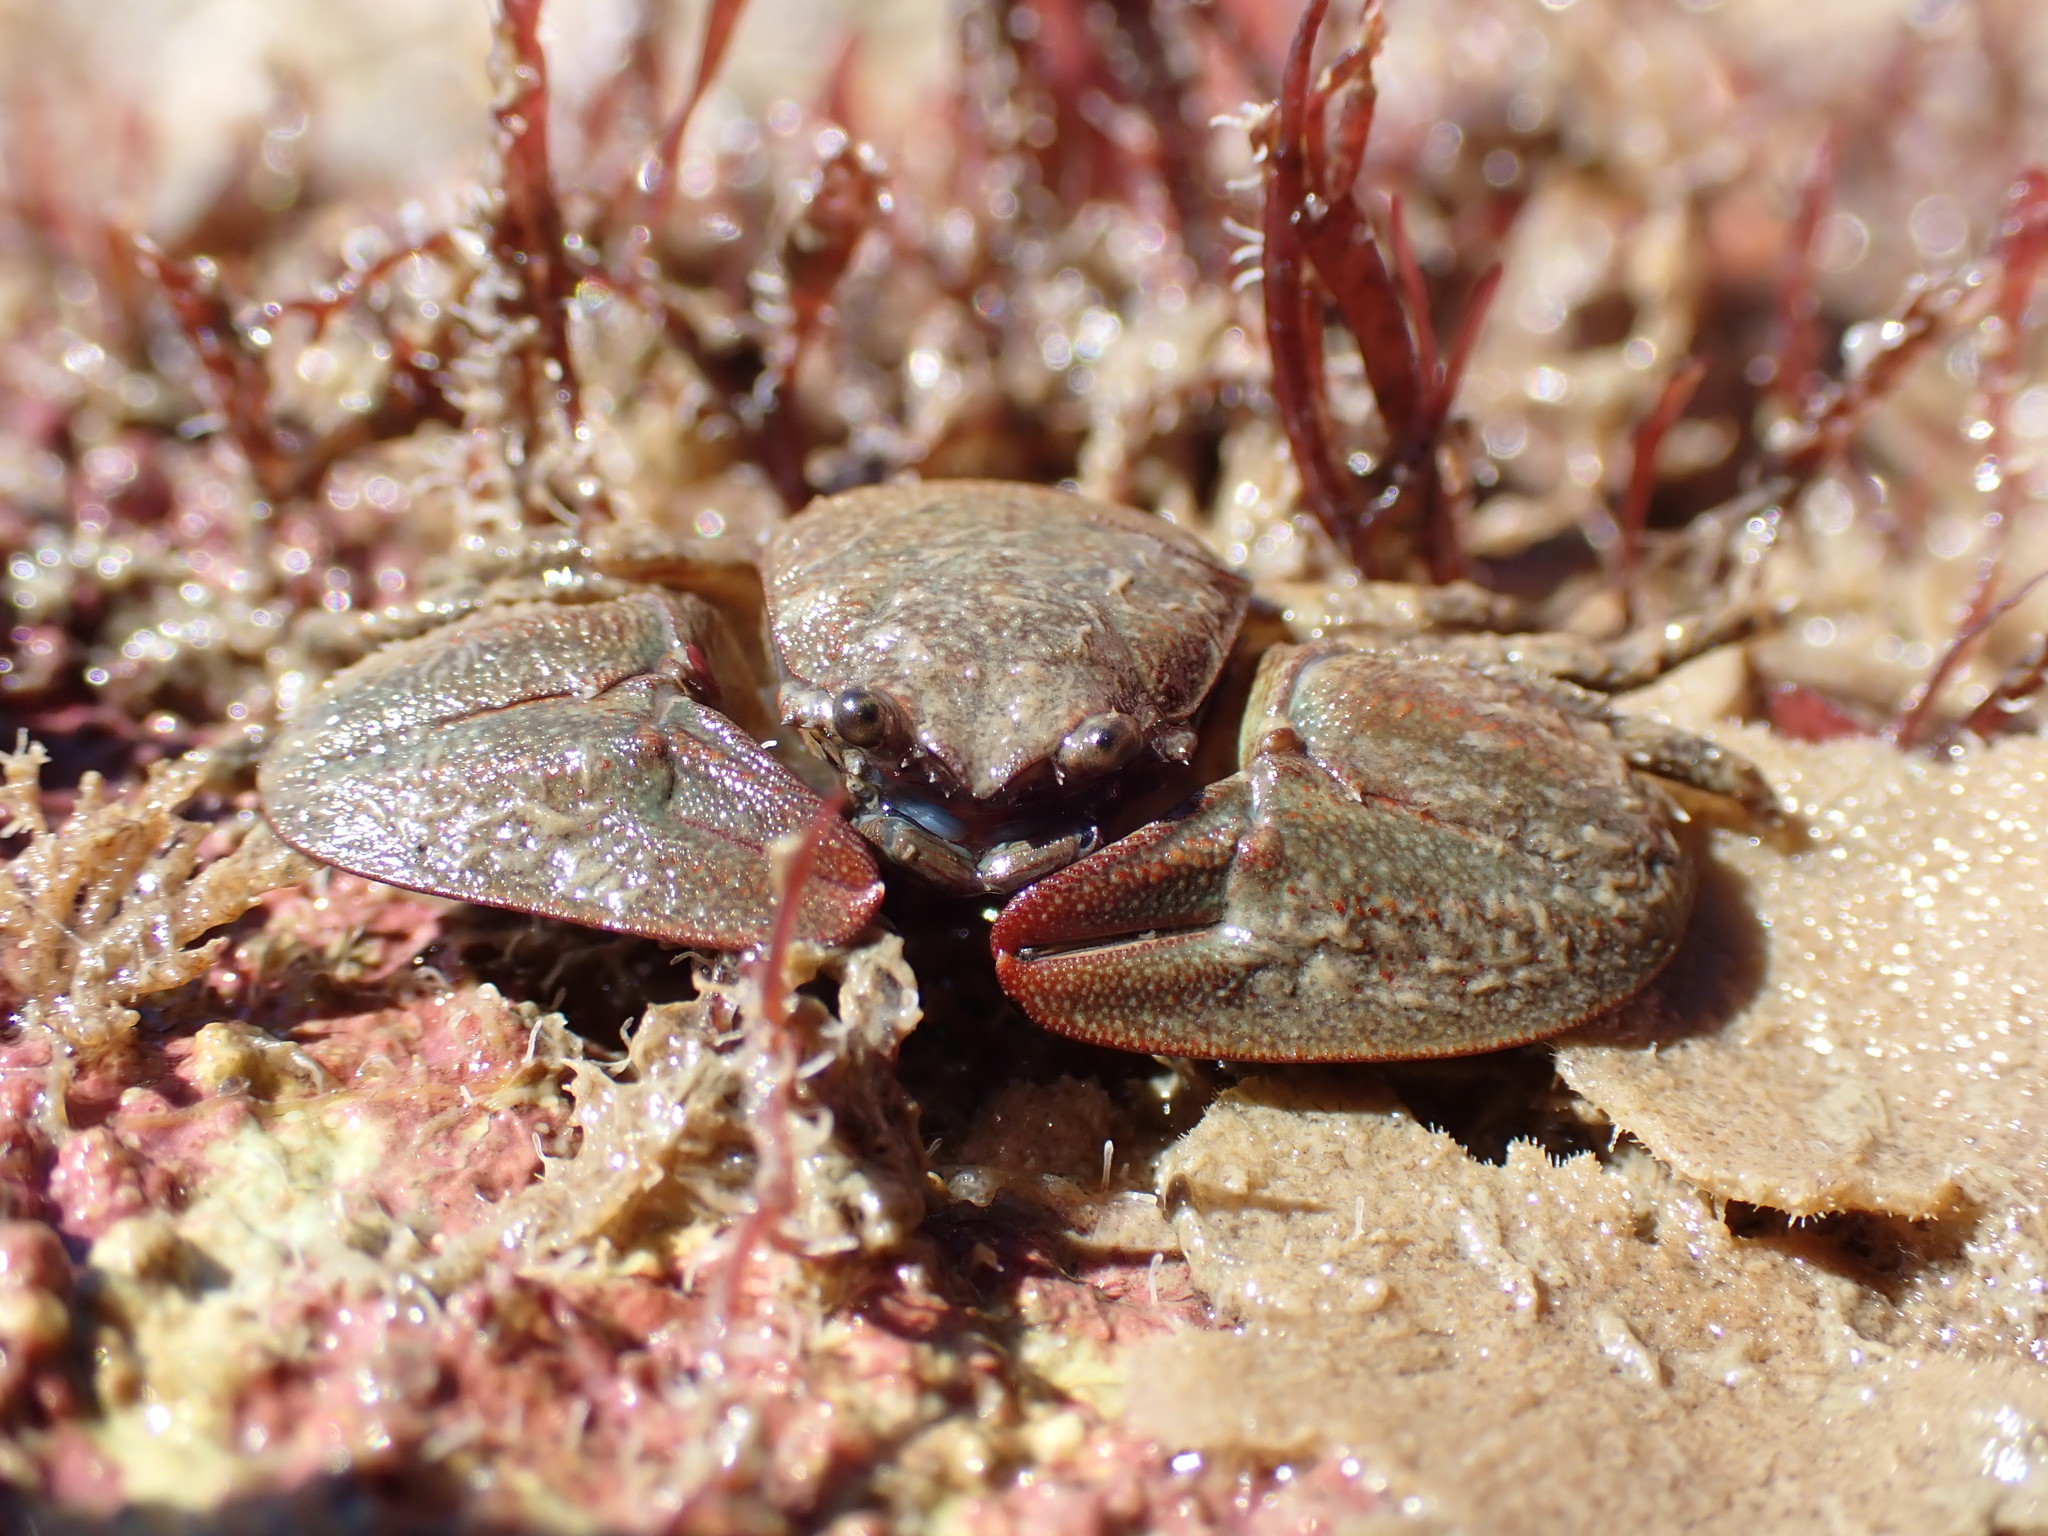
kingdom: Animalia
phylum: Arthropoda
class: Malacostraca
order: Decapoda
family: Porcellanidae
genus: Petrolisthes
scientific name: Petrolisthes elongatus
